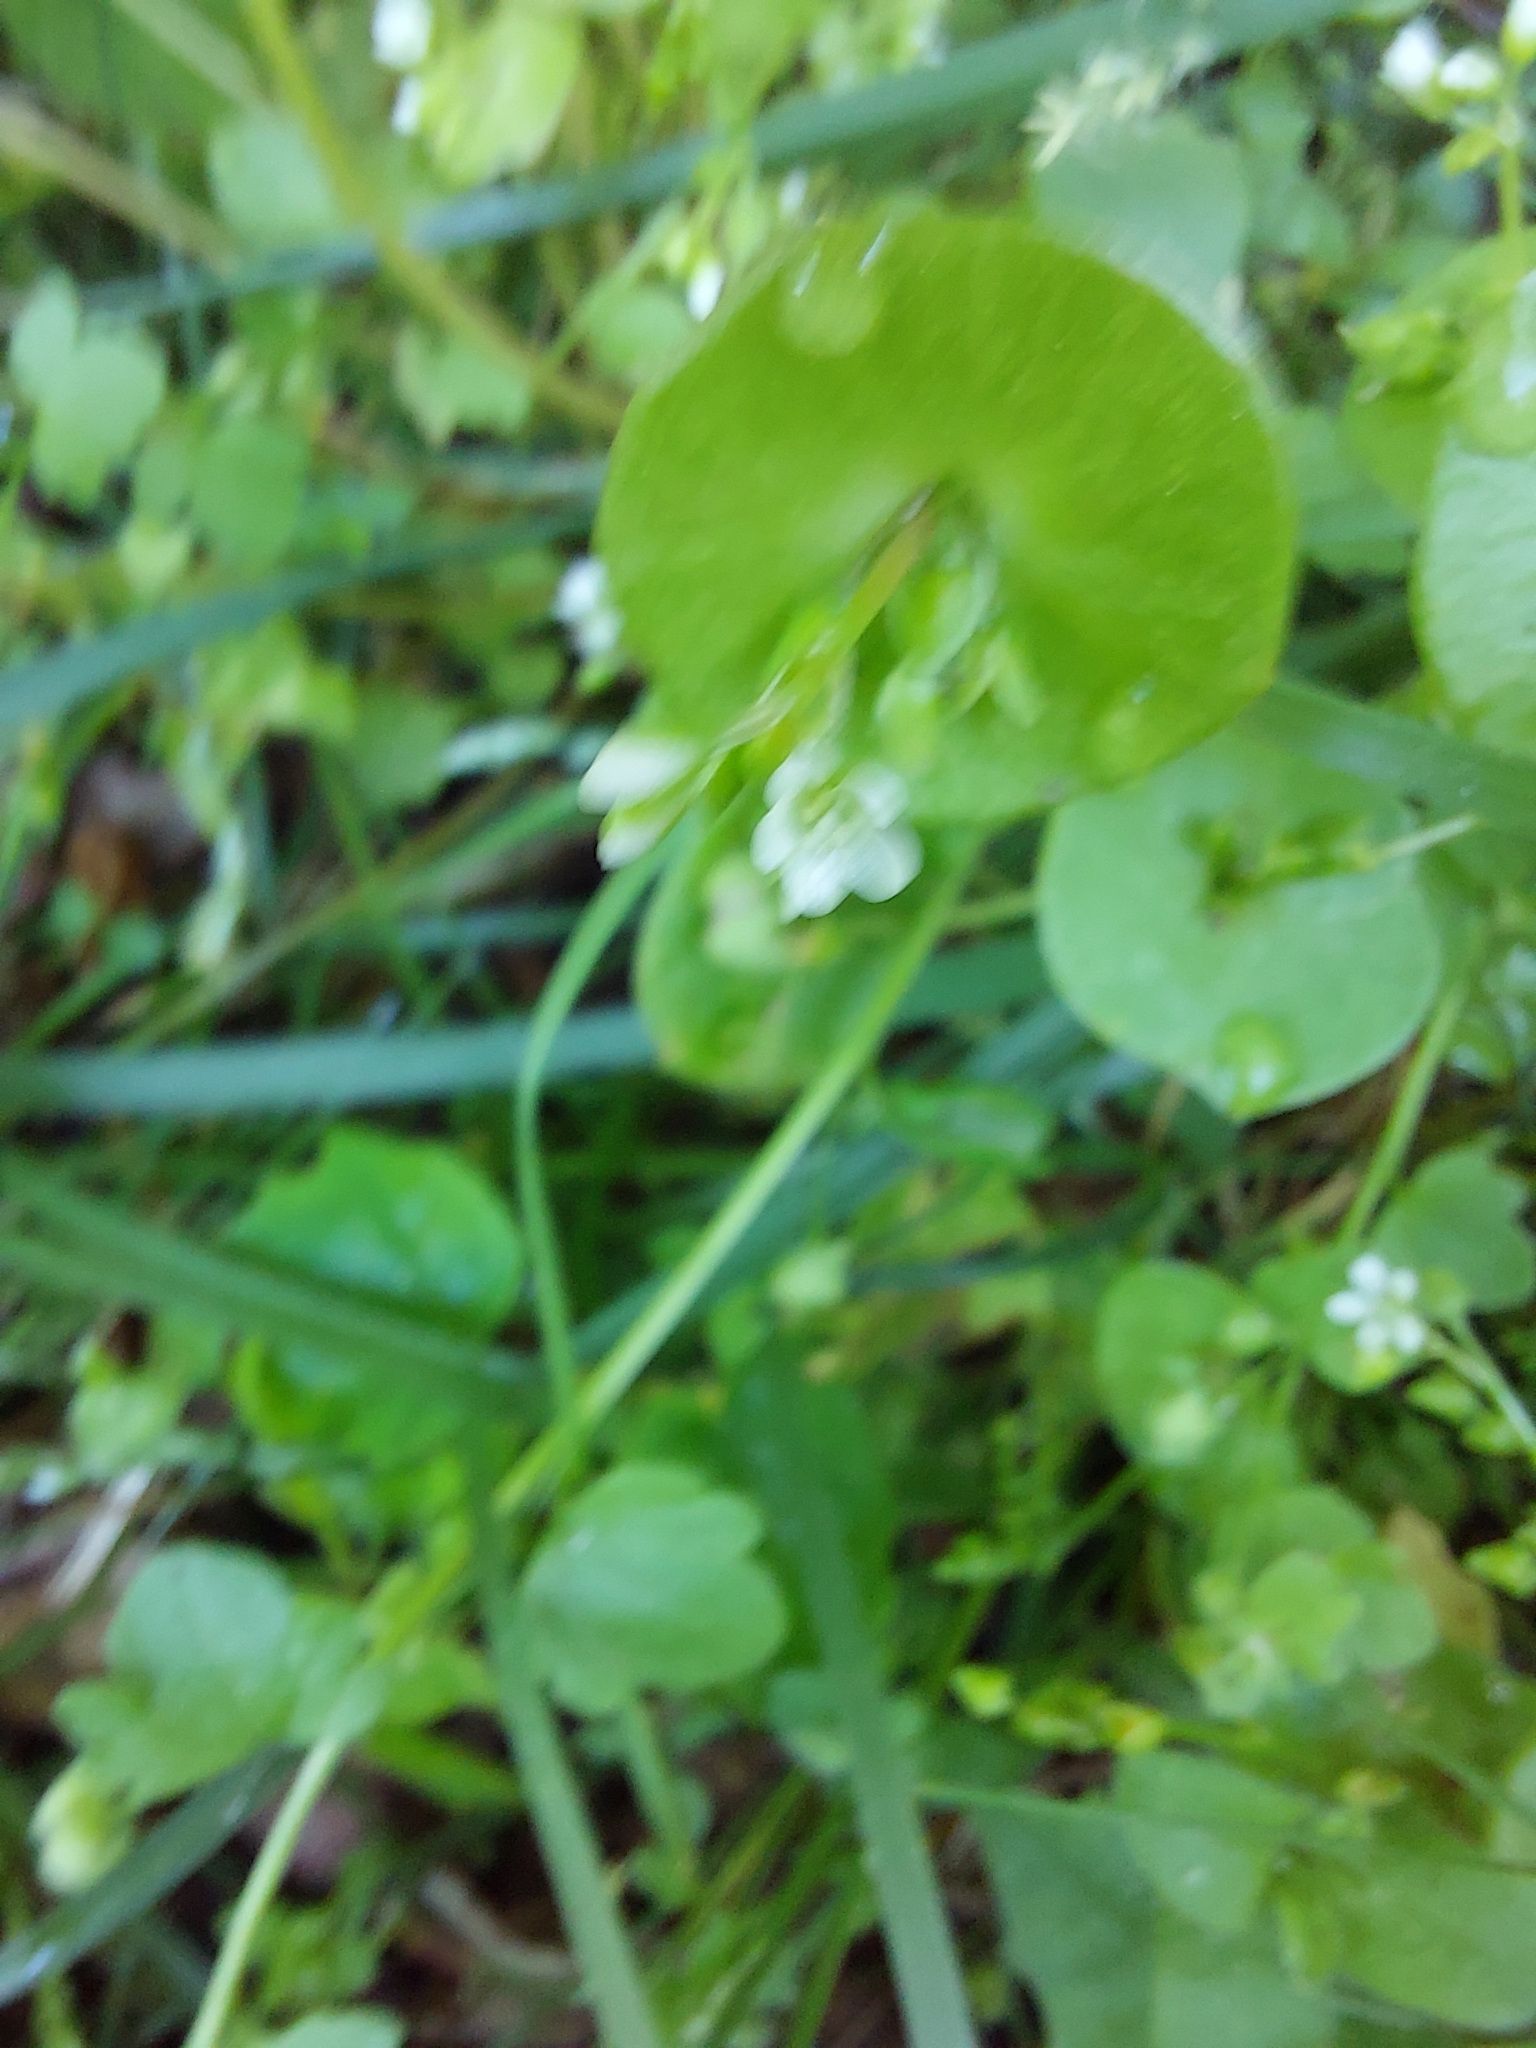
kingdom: Plantae
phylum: Tracheophyta
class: Magnoliopsida
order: Caryophyllales
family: Montiaceae
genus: Claytonia
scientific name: Claytonia perfoliata
